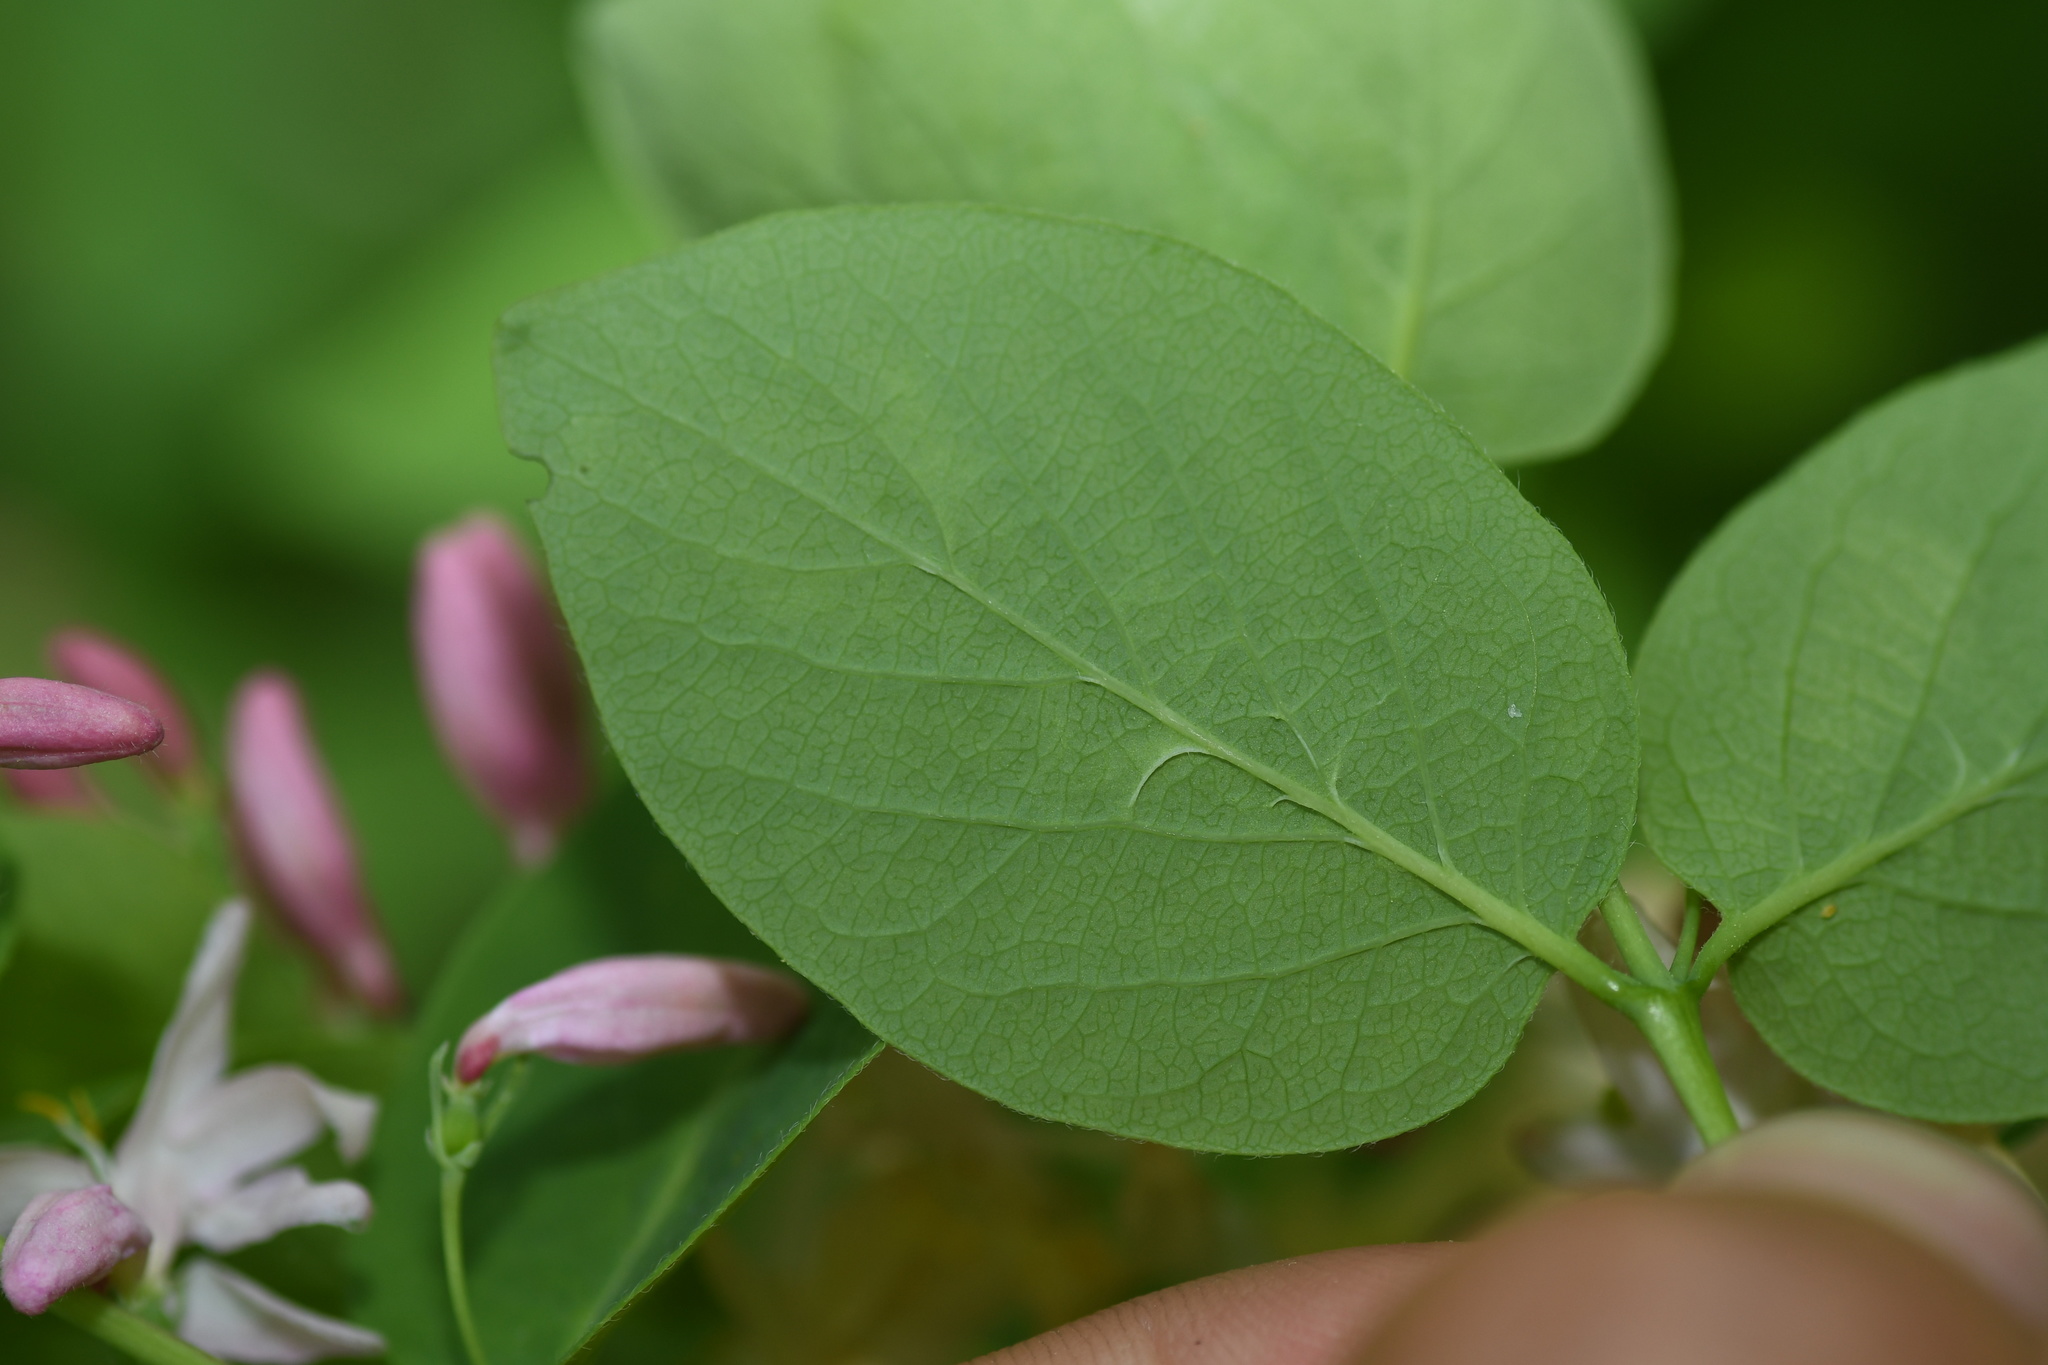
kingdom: Plantae
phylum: Tracheophyta
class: Magnoliopsida
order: Dipsacales
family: Caprifoliaceae
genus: Lonicera
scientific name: Lonicera
